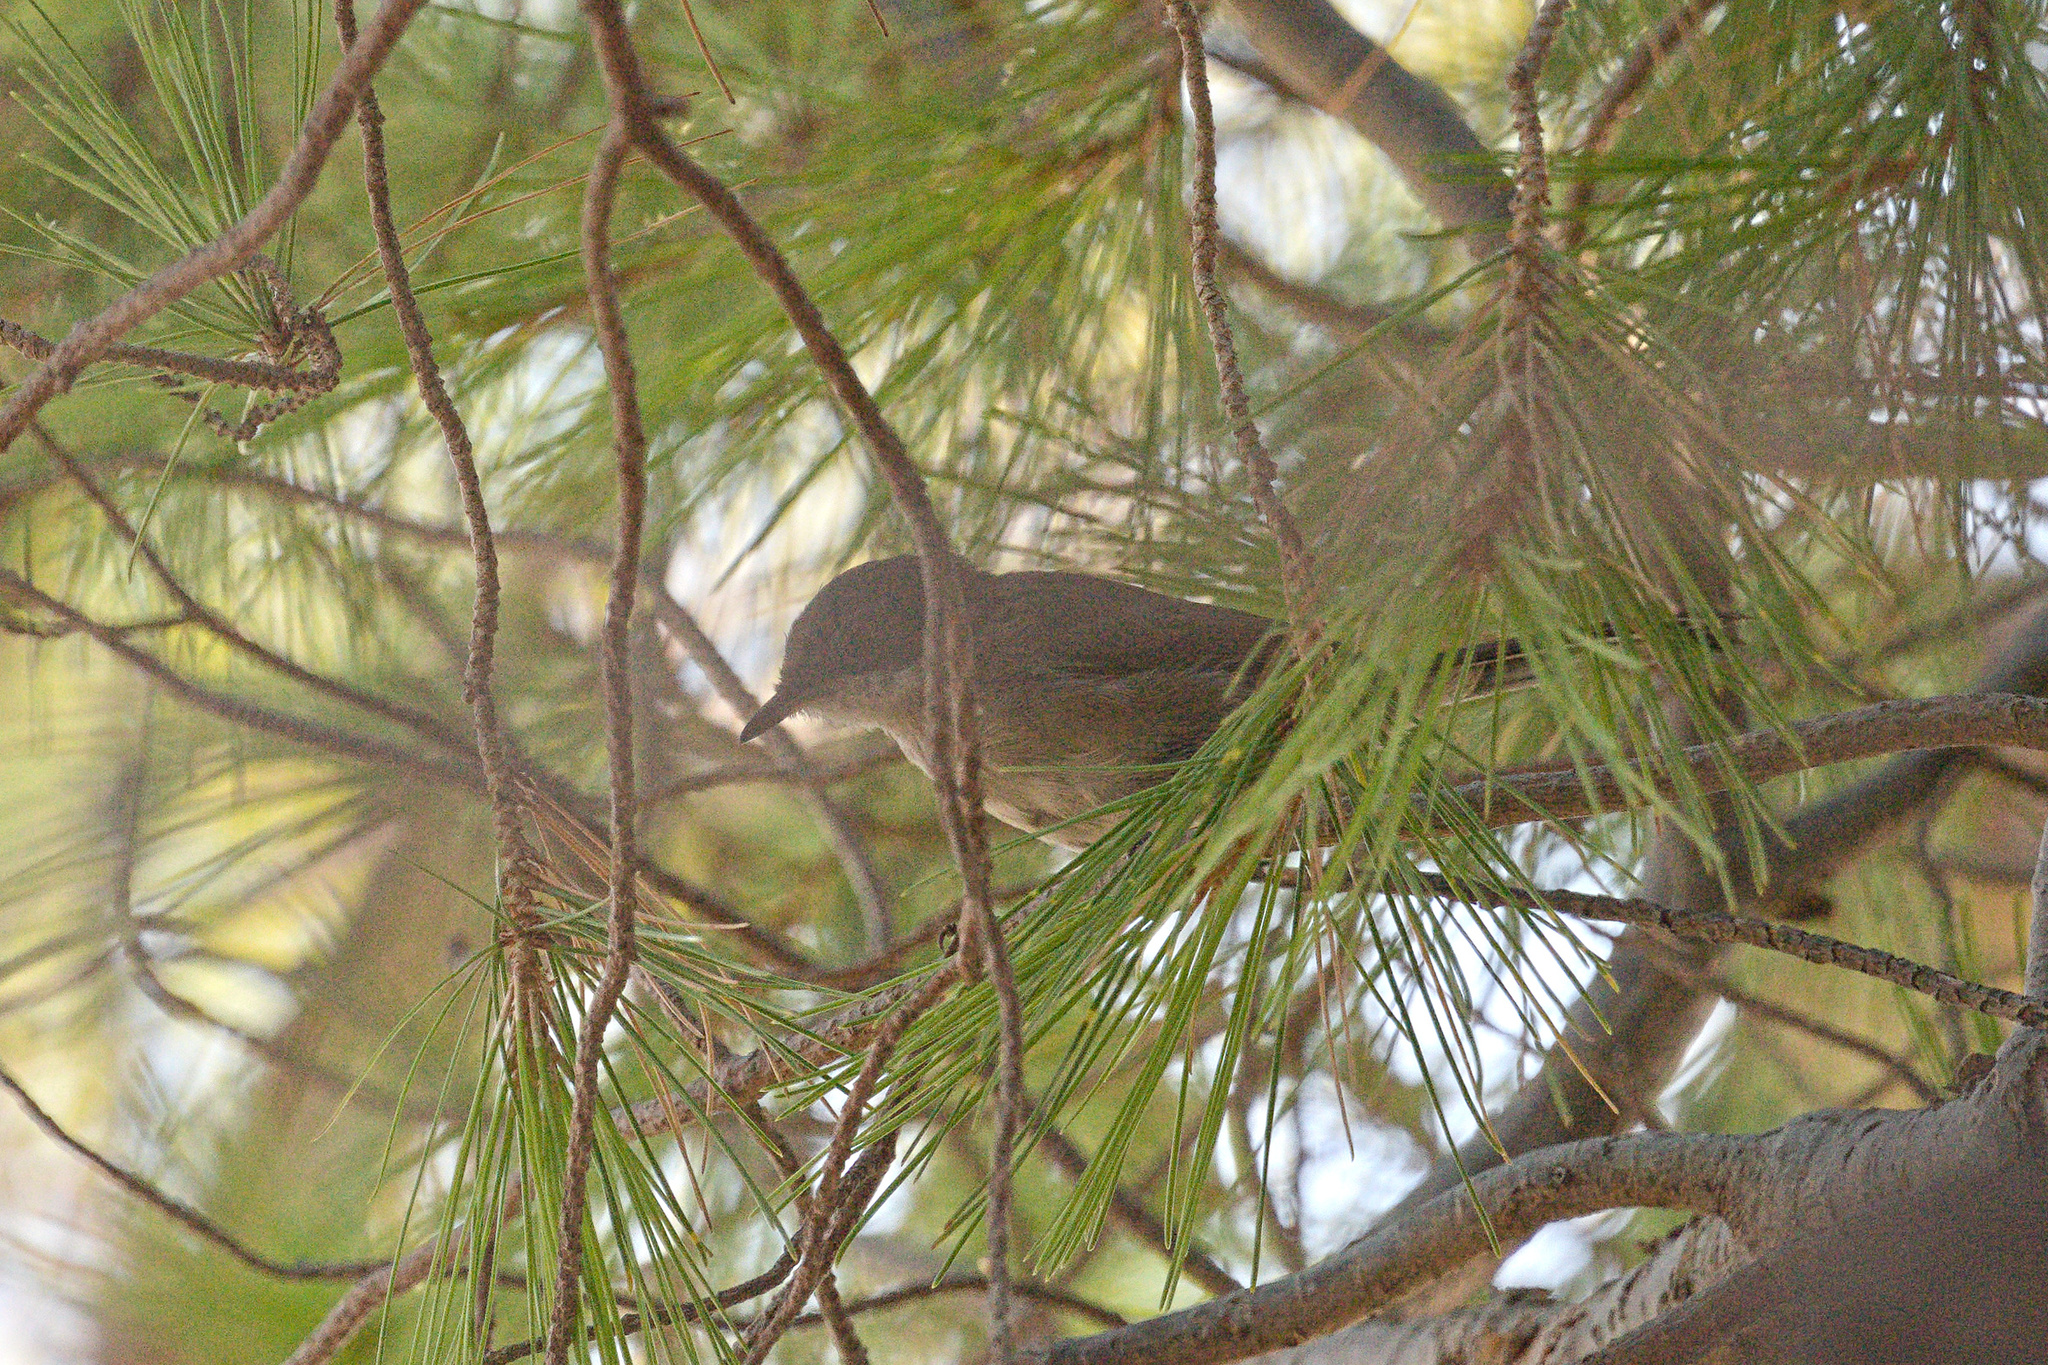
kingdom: Animalia
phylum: Chordata
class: Aves
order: Passeriformes
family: Sylviidae
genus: Curruca
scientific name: Curruca melanocephala
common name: Sardinian warbler
